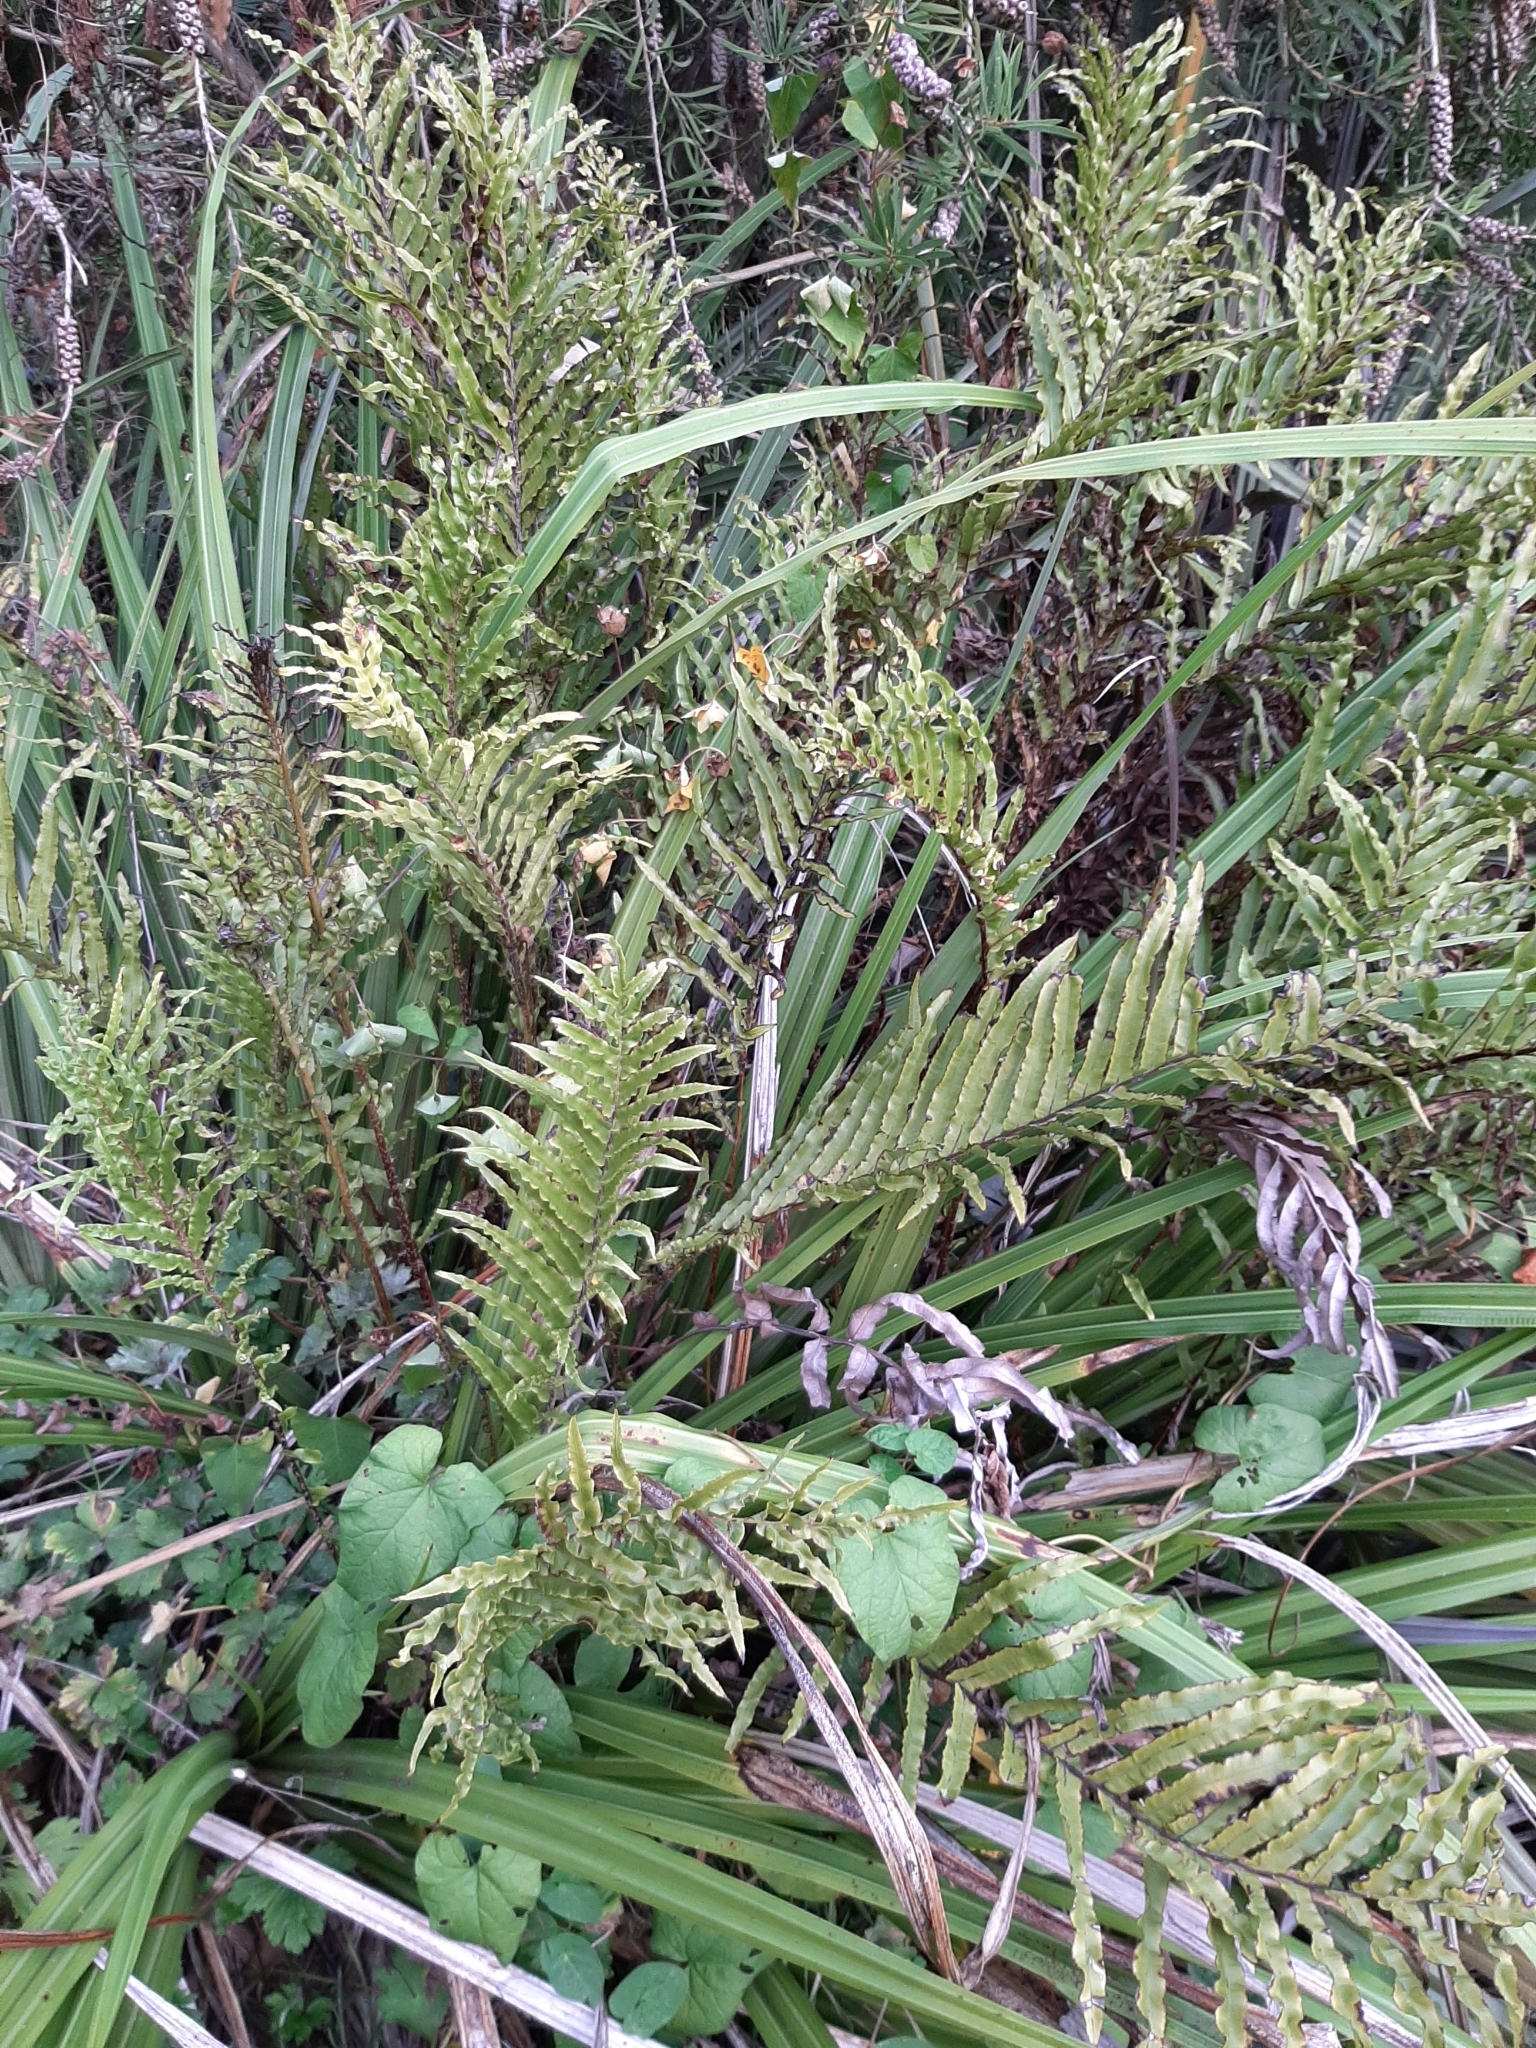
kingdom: Plantae
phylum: Tracheophyta
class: Polypodiopsida
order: Polypodiales
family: Blechnaceae
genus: Parablechnum
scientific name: Parablechnum minus
